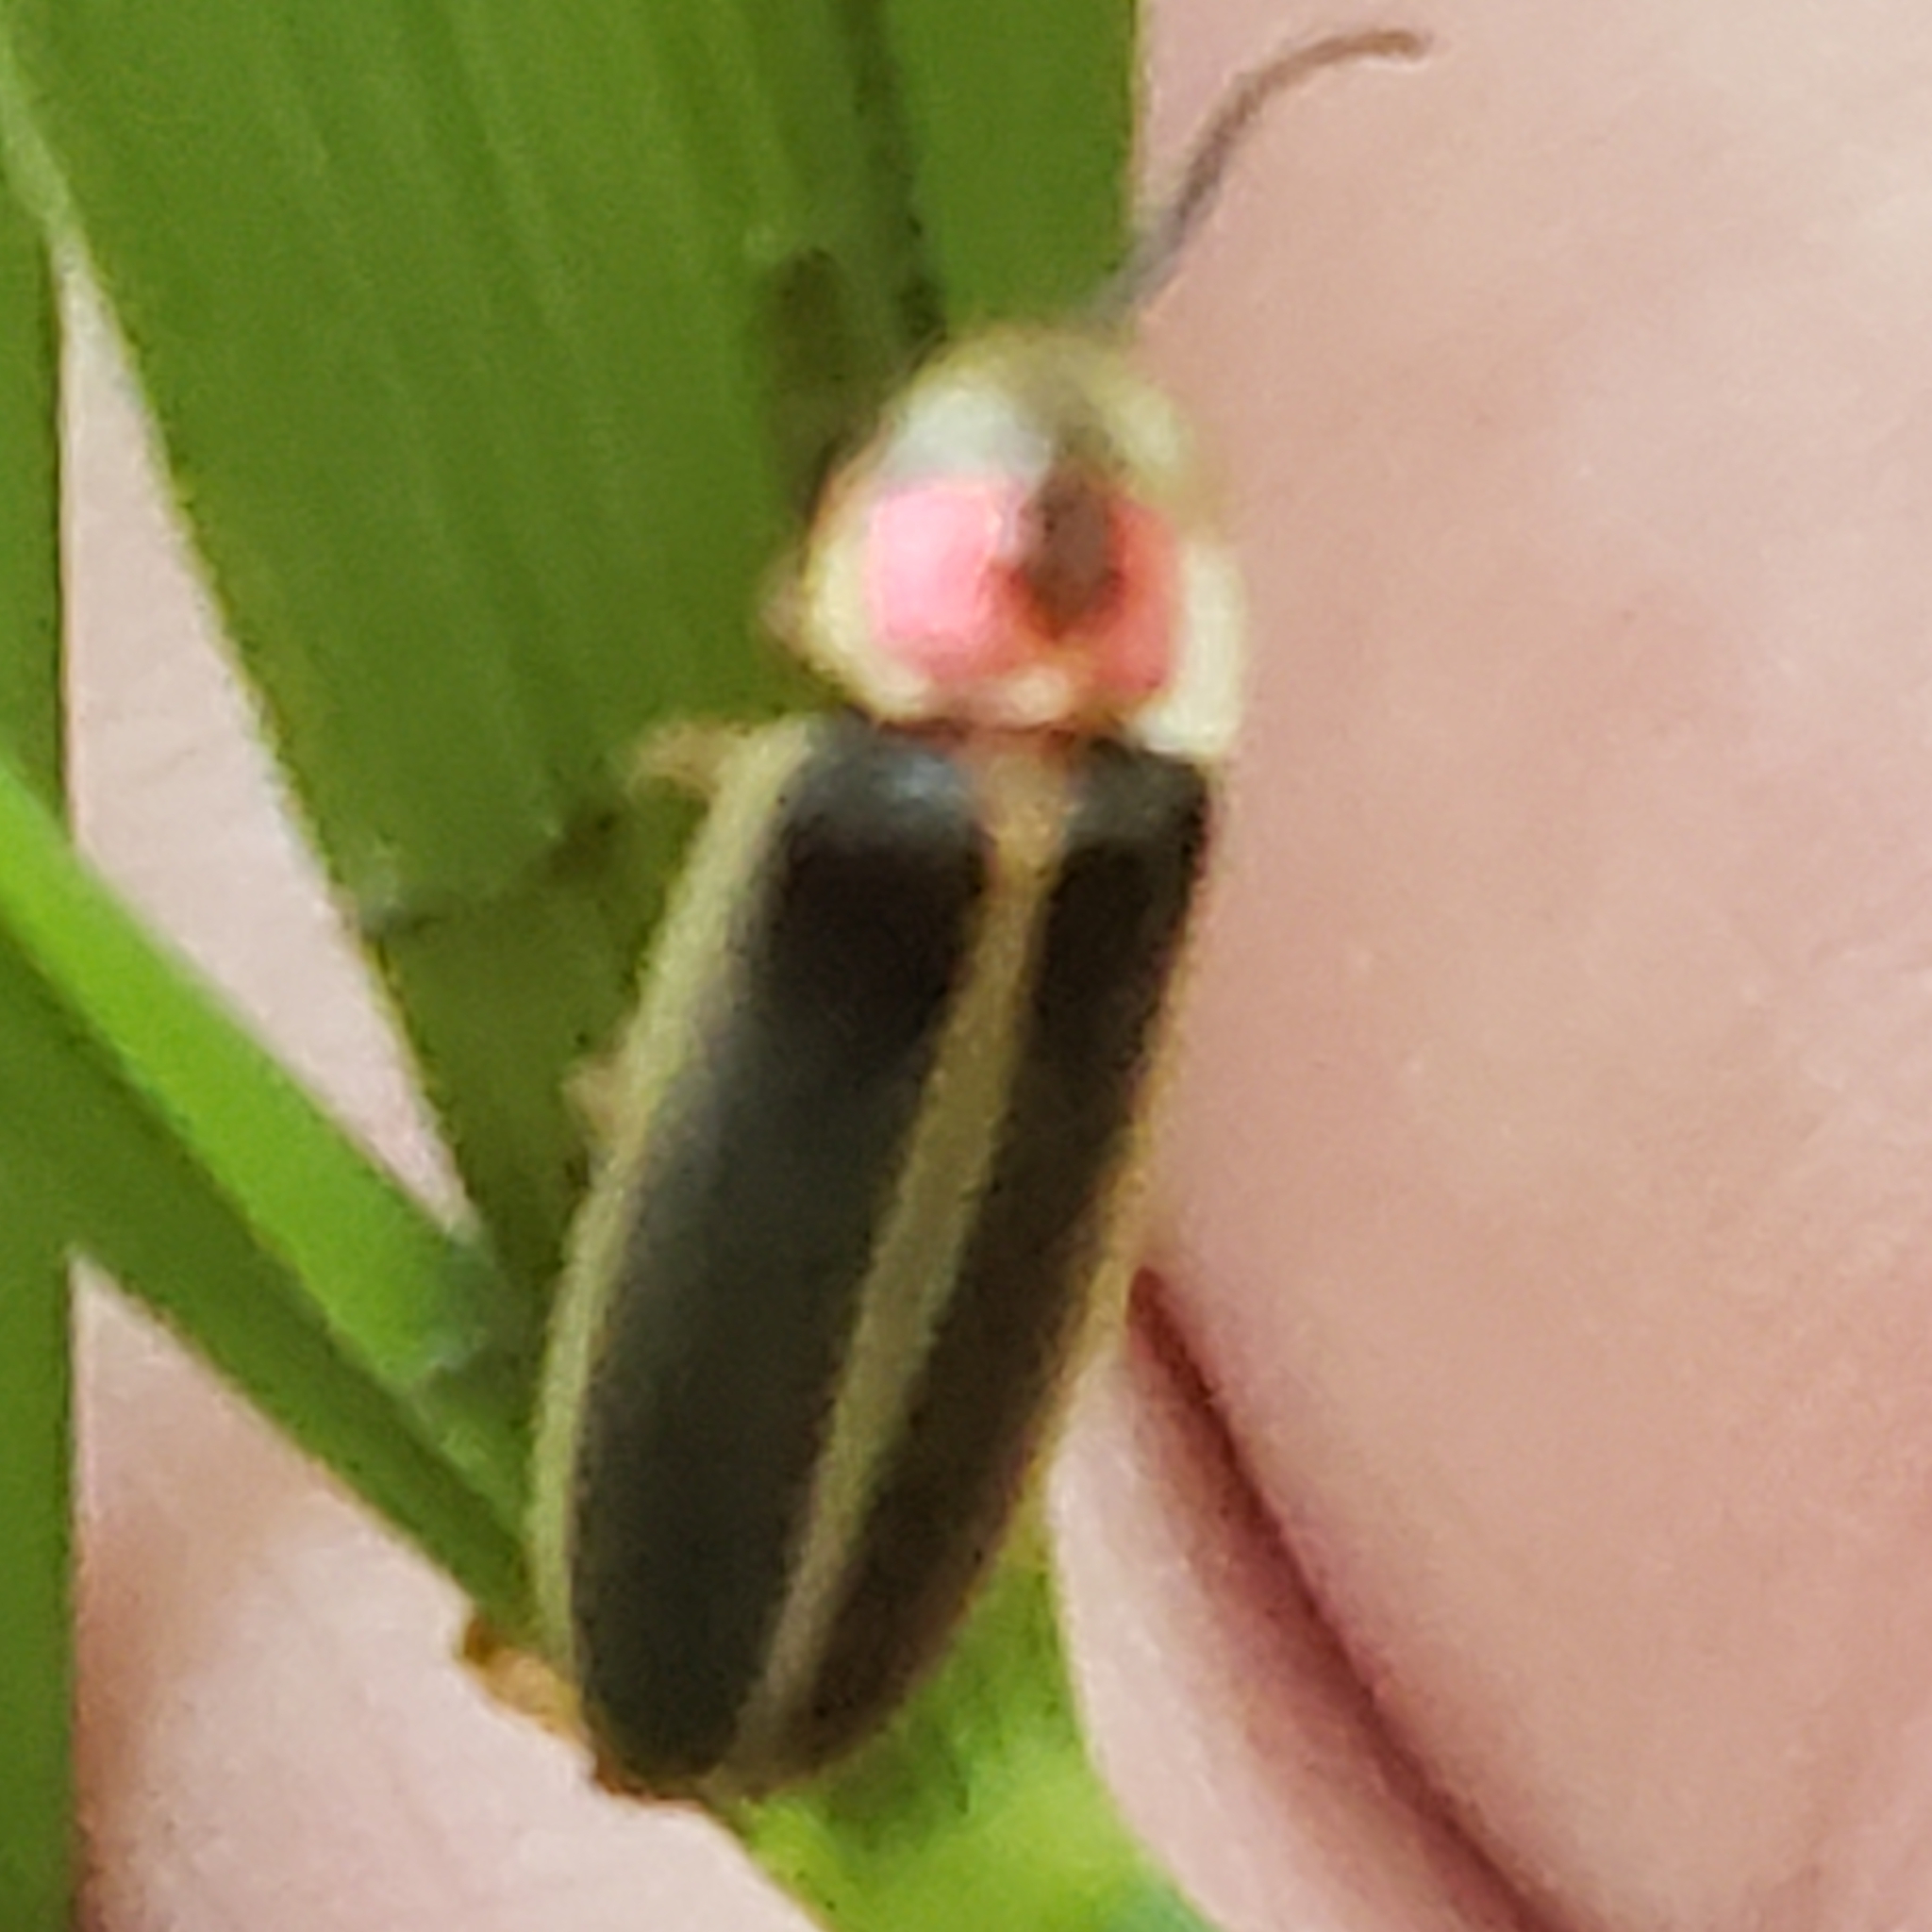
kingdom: Animalia
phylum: Arthropoda
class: Insecta
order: Coleoptera
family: Lampyridae
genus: Photinus
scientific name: Photinus pyralis
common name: Big dipper firefly
